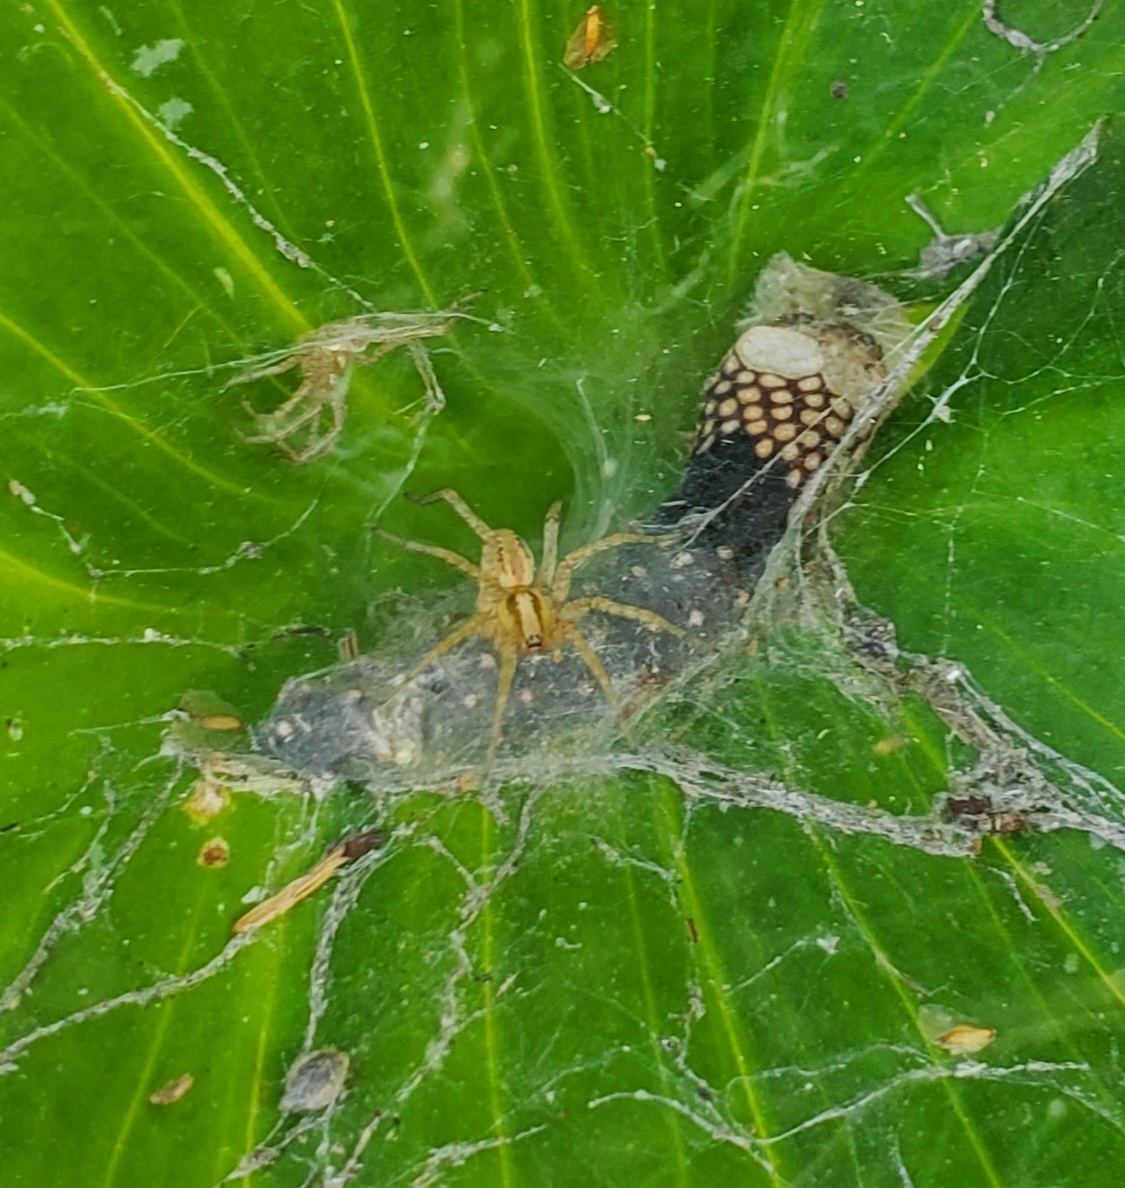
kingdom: Animalia
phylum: Arthropoda
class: Arachnida
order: Araneae
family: Agelenidae
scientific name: Agelenidae
